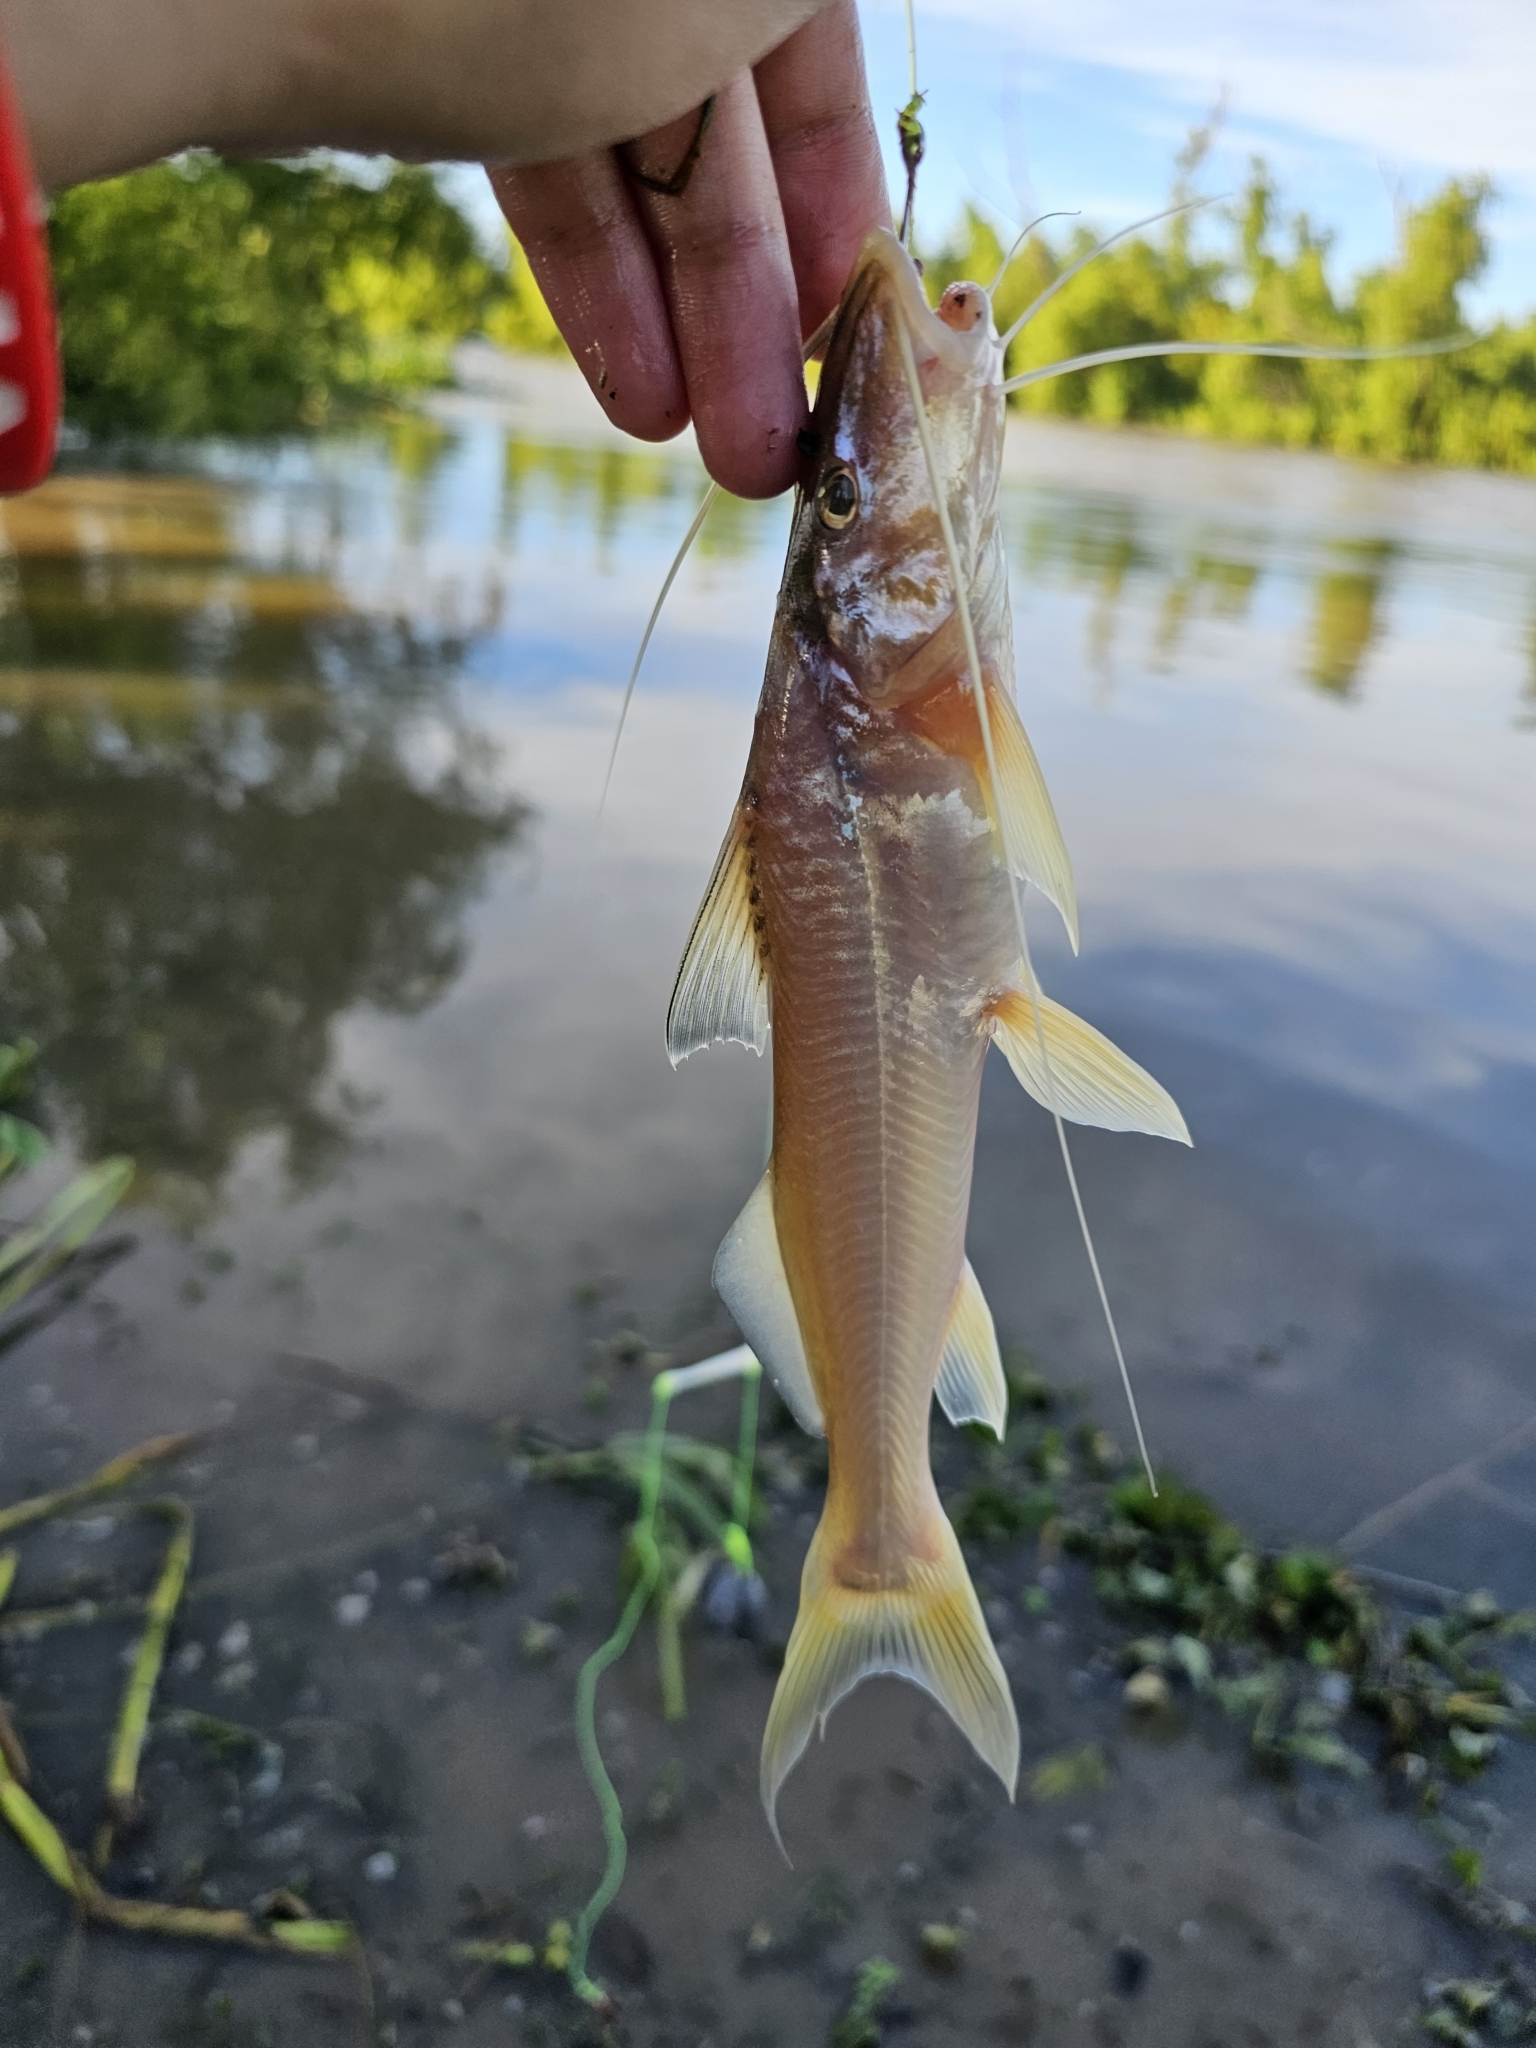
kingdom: Animalia
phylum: Chordata
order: Siluriformes
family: Pimelodidae
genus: Megalonema
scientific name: Megalonema platanum
